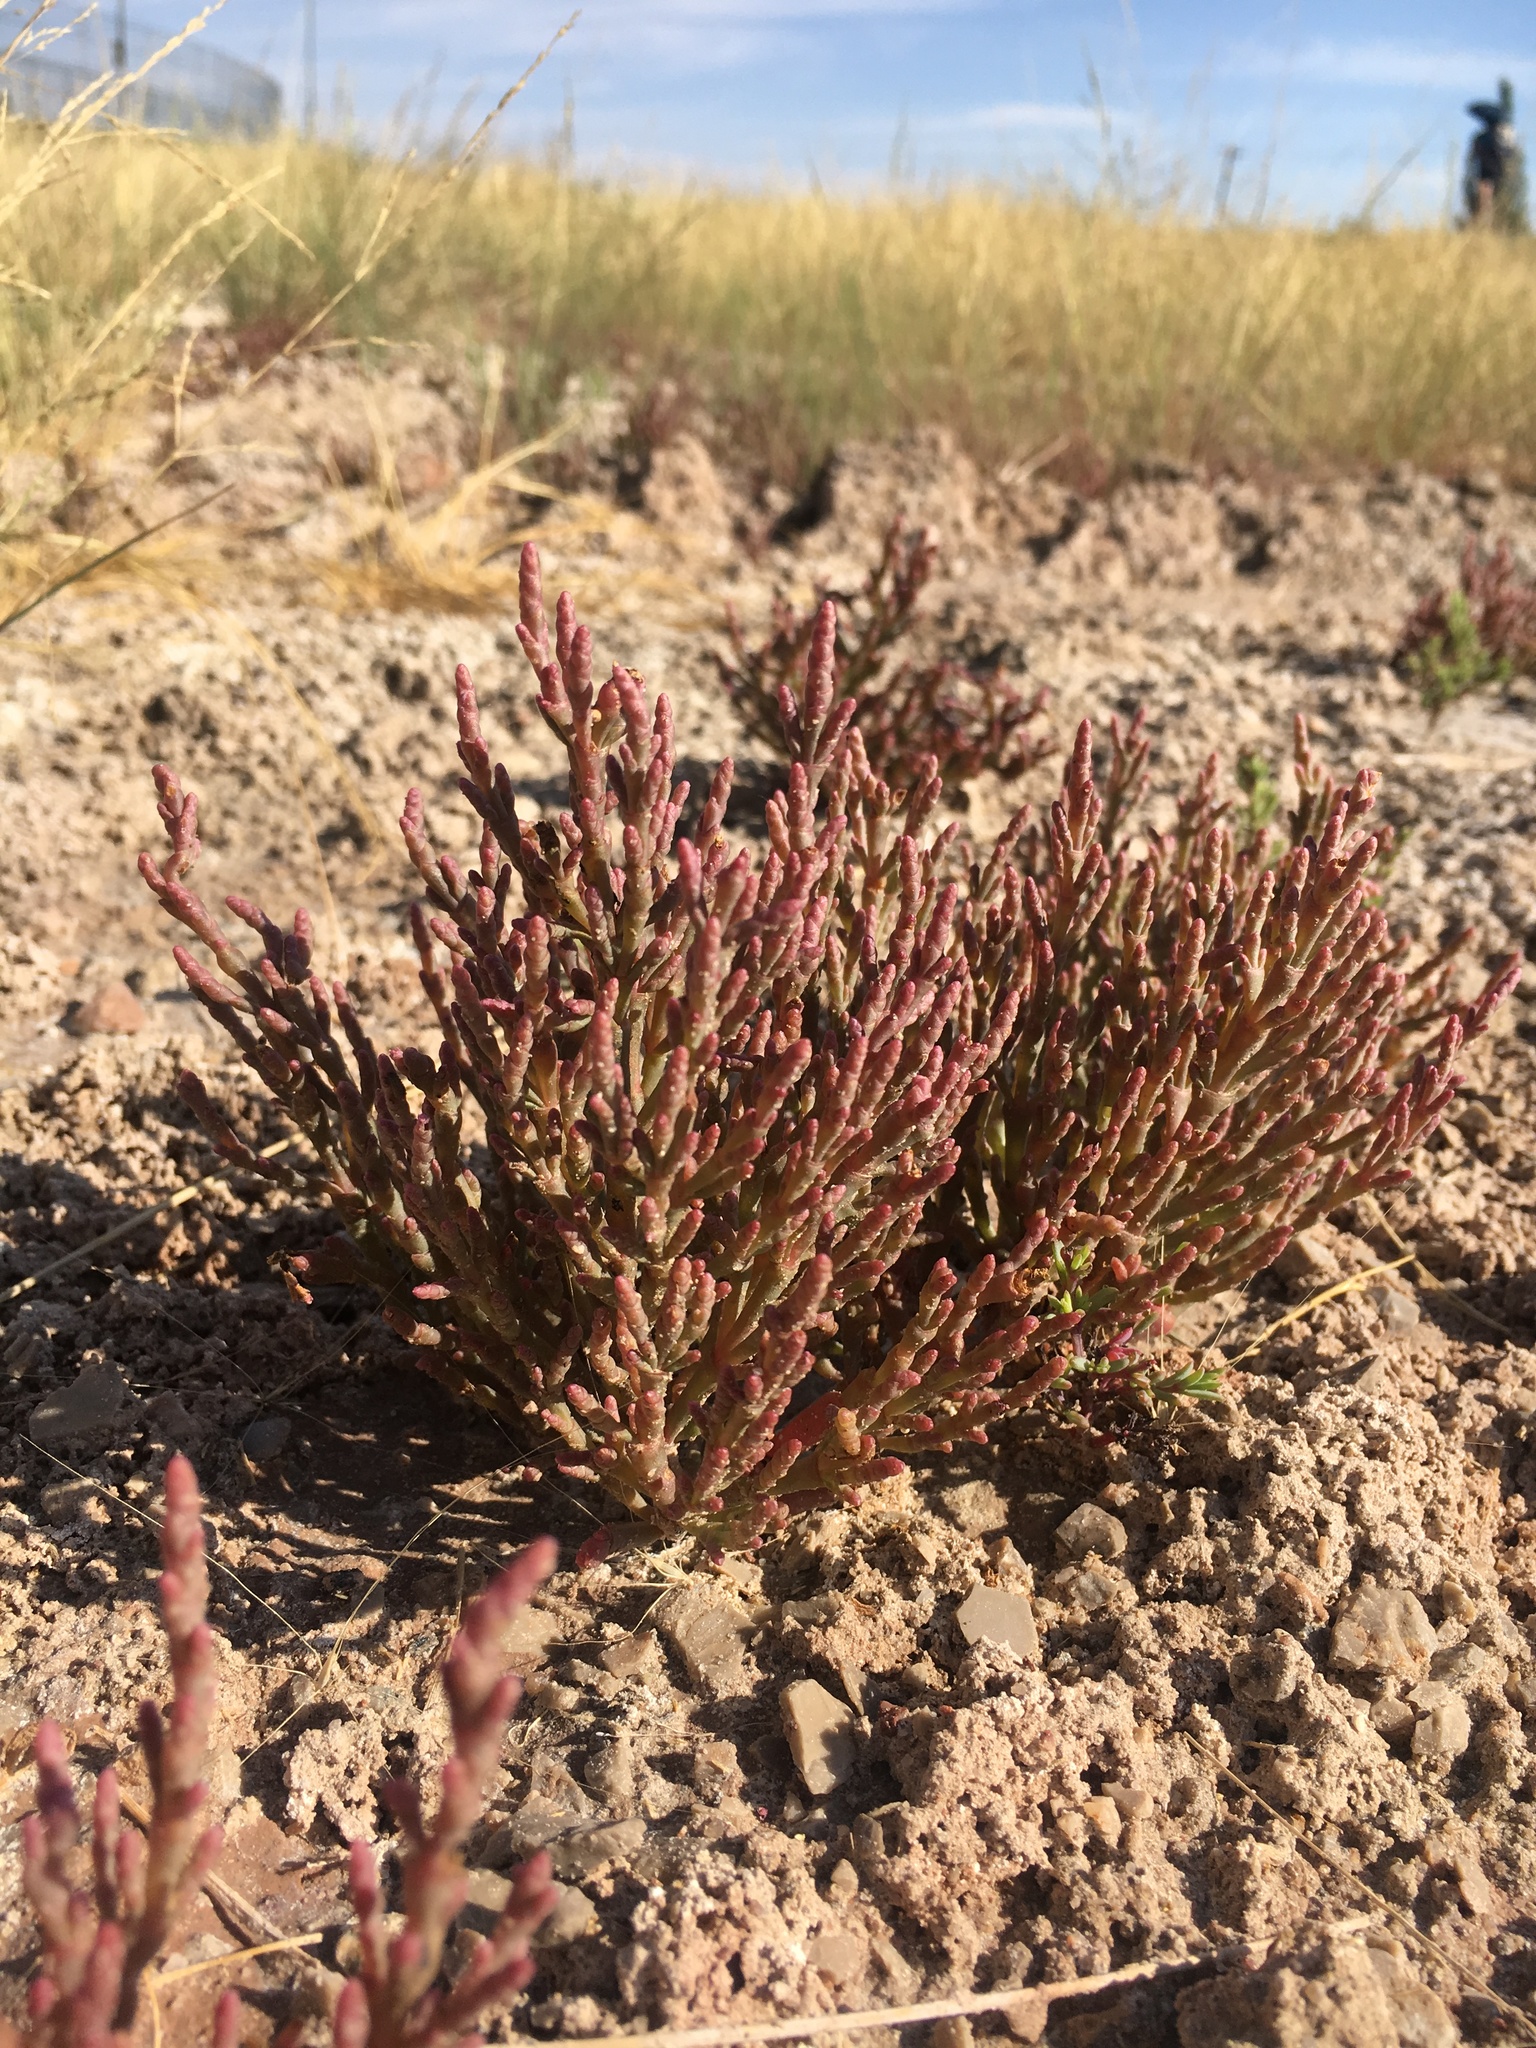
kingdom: Plantae
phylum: Tracheophyta
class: Magnoliopsida
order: Caryophyllales
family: Amaranthaceae
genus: Salicornia
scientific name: Salicornia rubra
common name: Red glasswort
